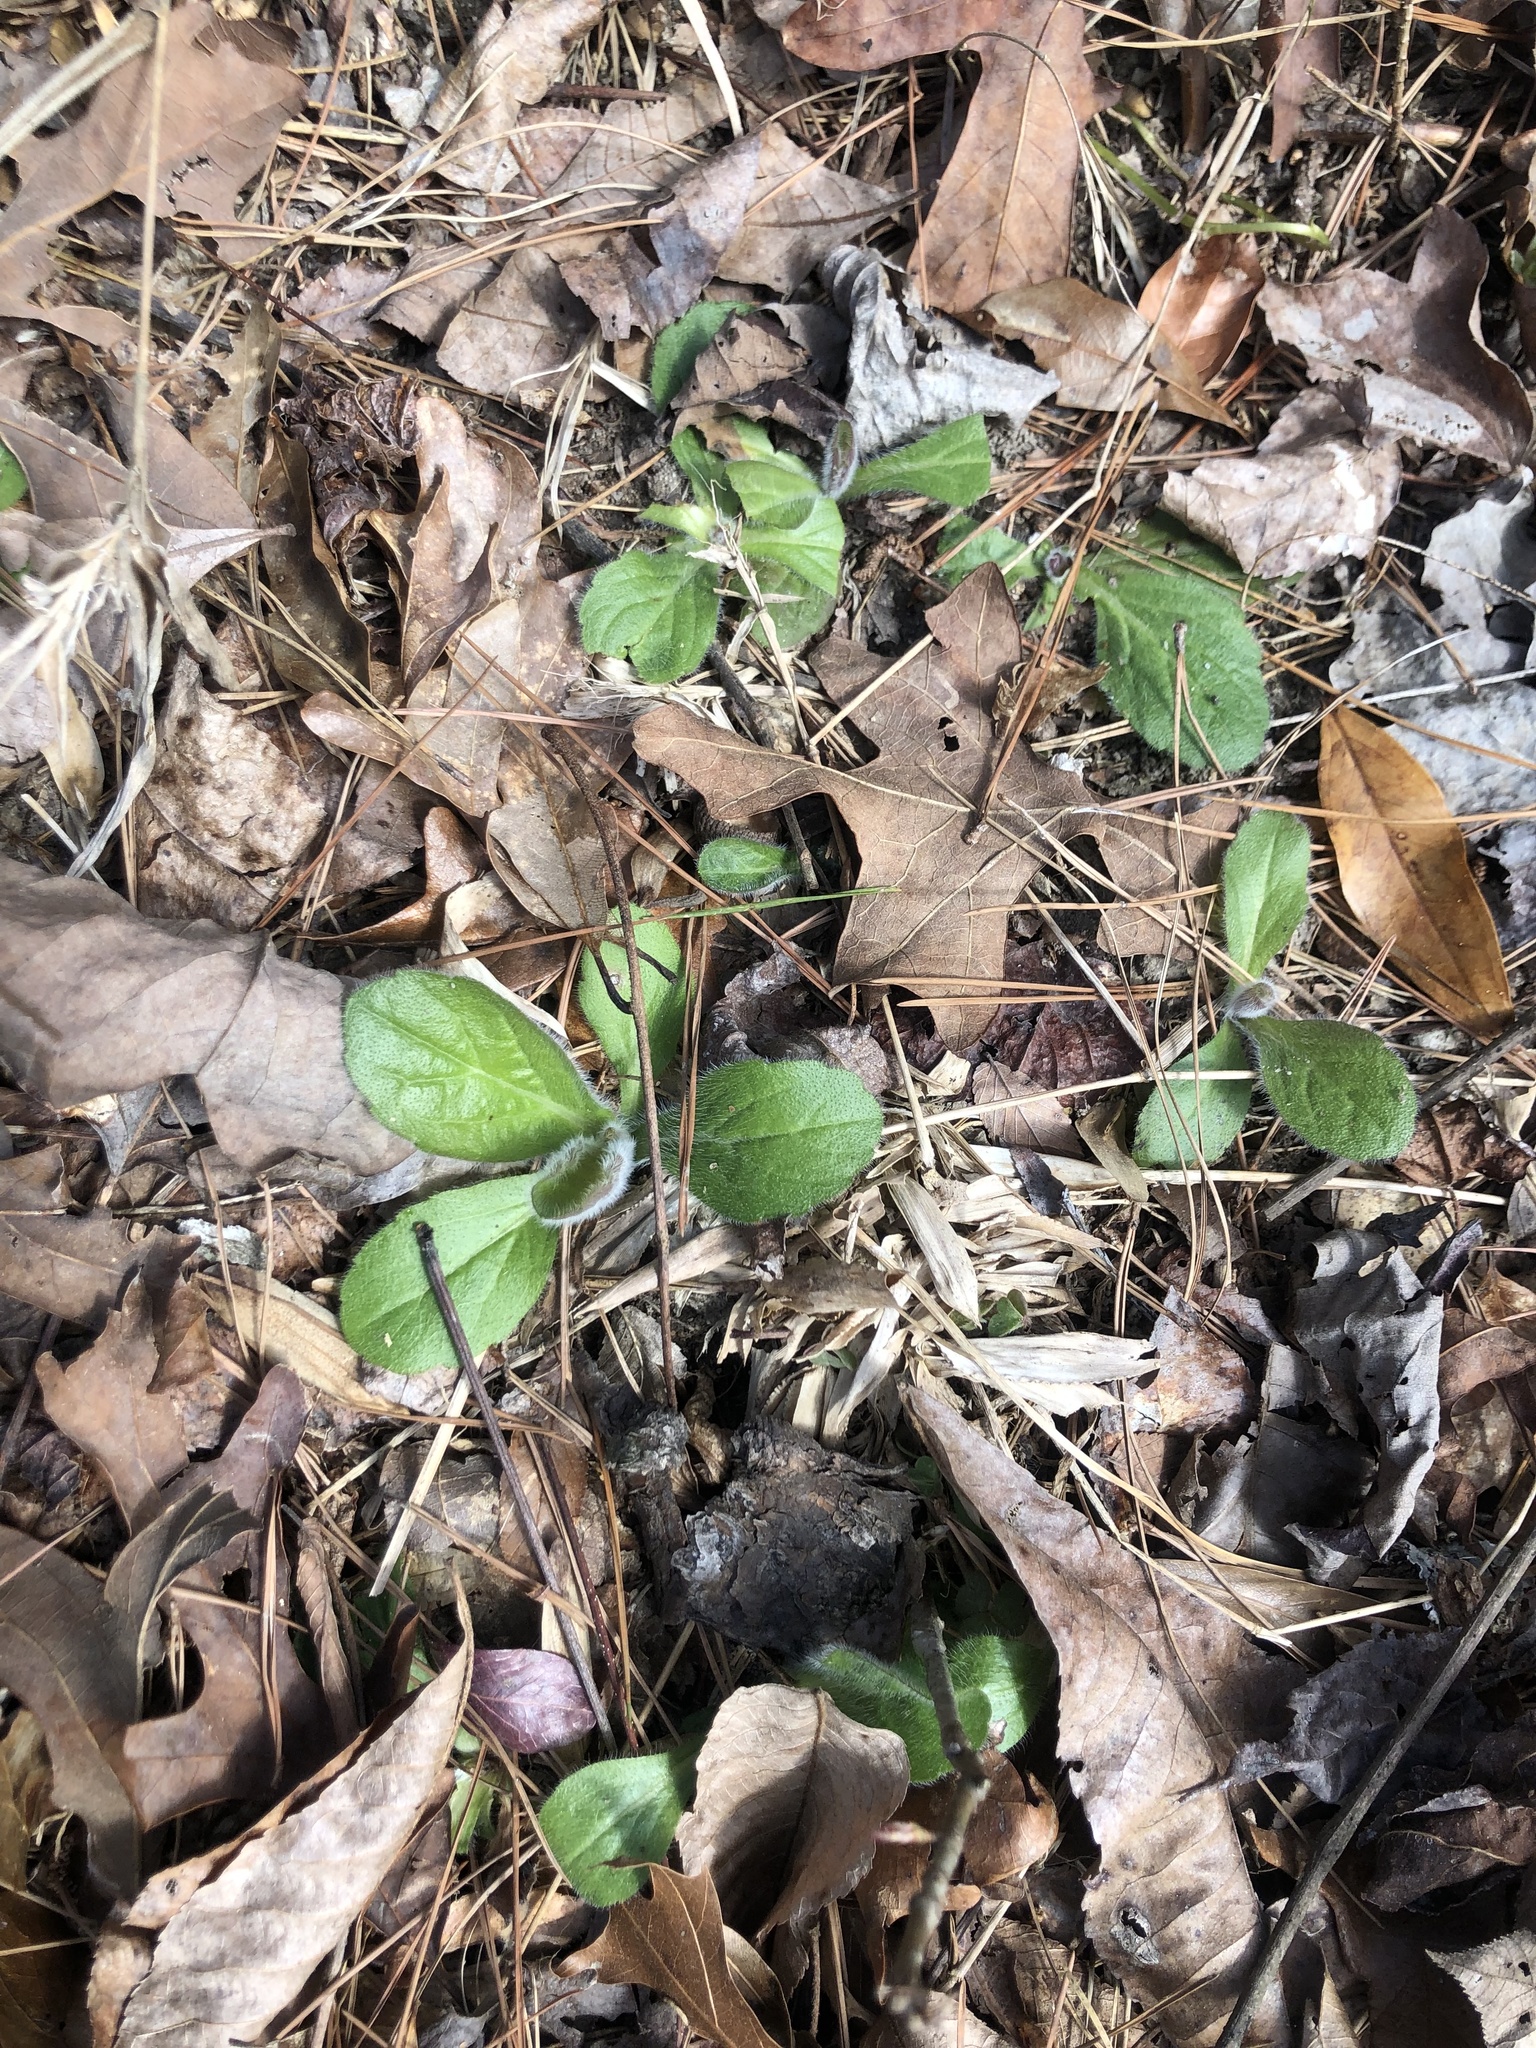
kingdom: Plantae
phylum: Tracheophyta
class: Magnoliopsida
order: Asterales
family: Asteraceae
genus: Erigeron
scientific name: Erigeron pulchellus
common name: Hairy fleabane
